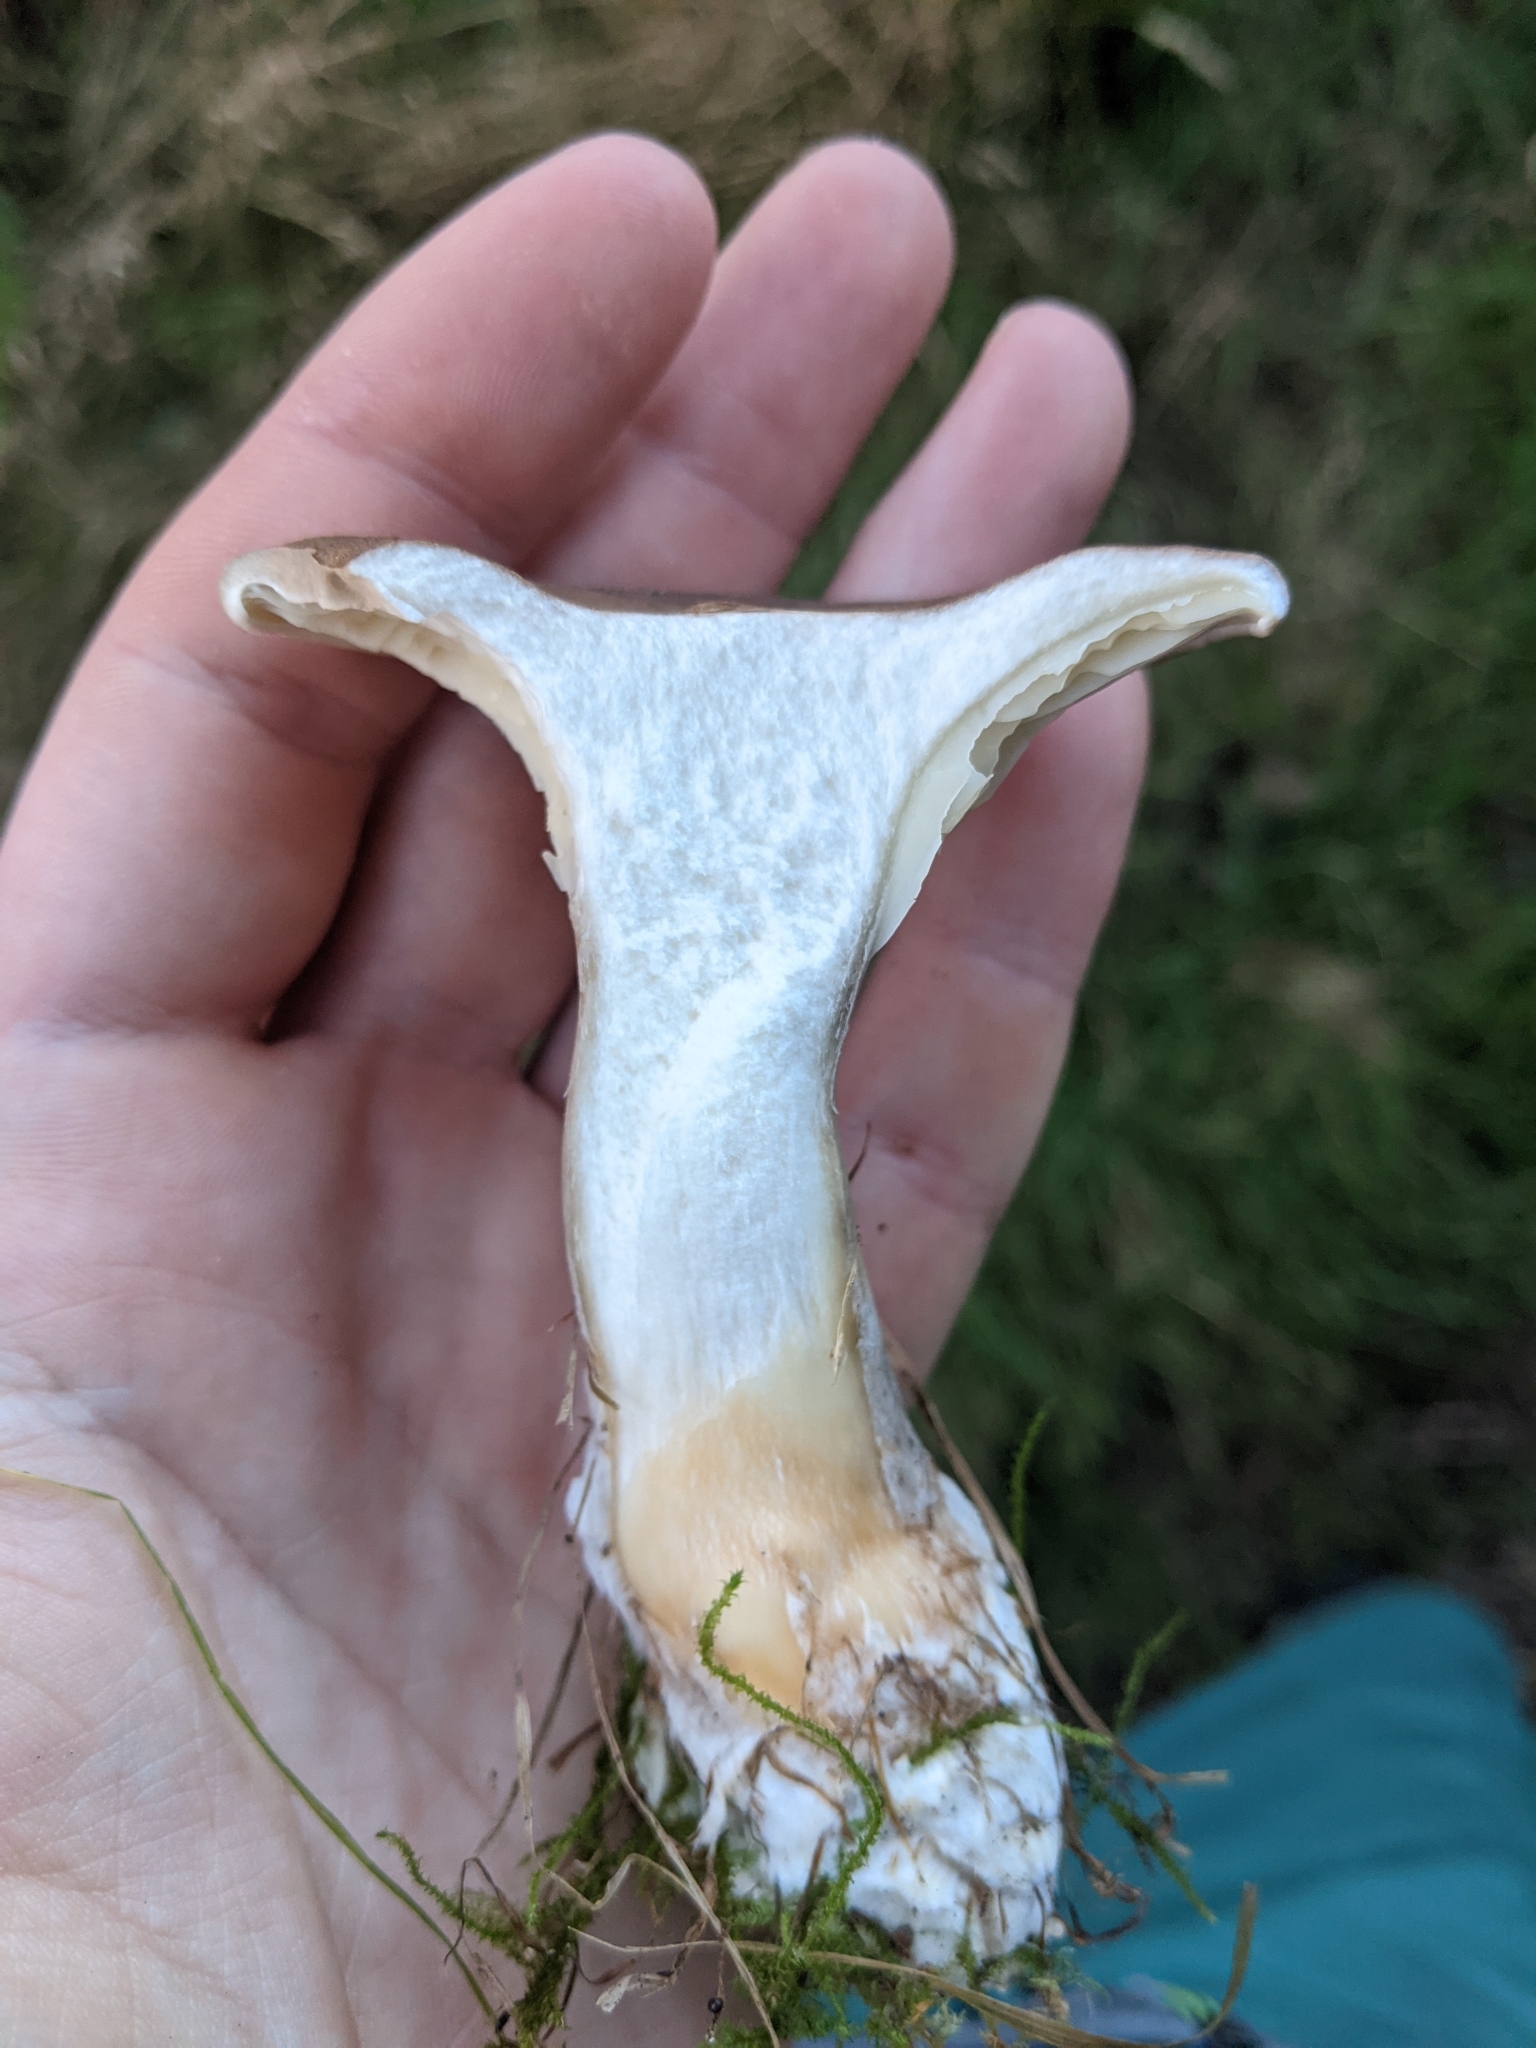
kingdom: Fungi
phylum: Basidiomycota
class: Agaricomycetes
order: Agaricales
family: Hygrophoraceae
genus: Ampulloclitocybe
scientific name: Ampulloclitocybe clavipes
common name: Club foot
